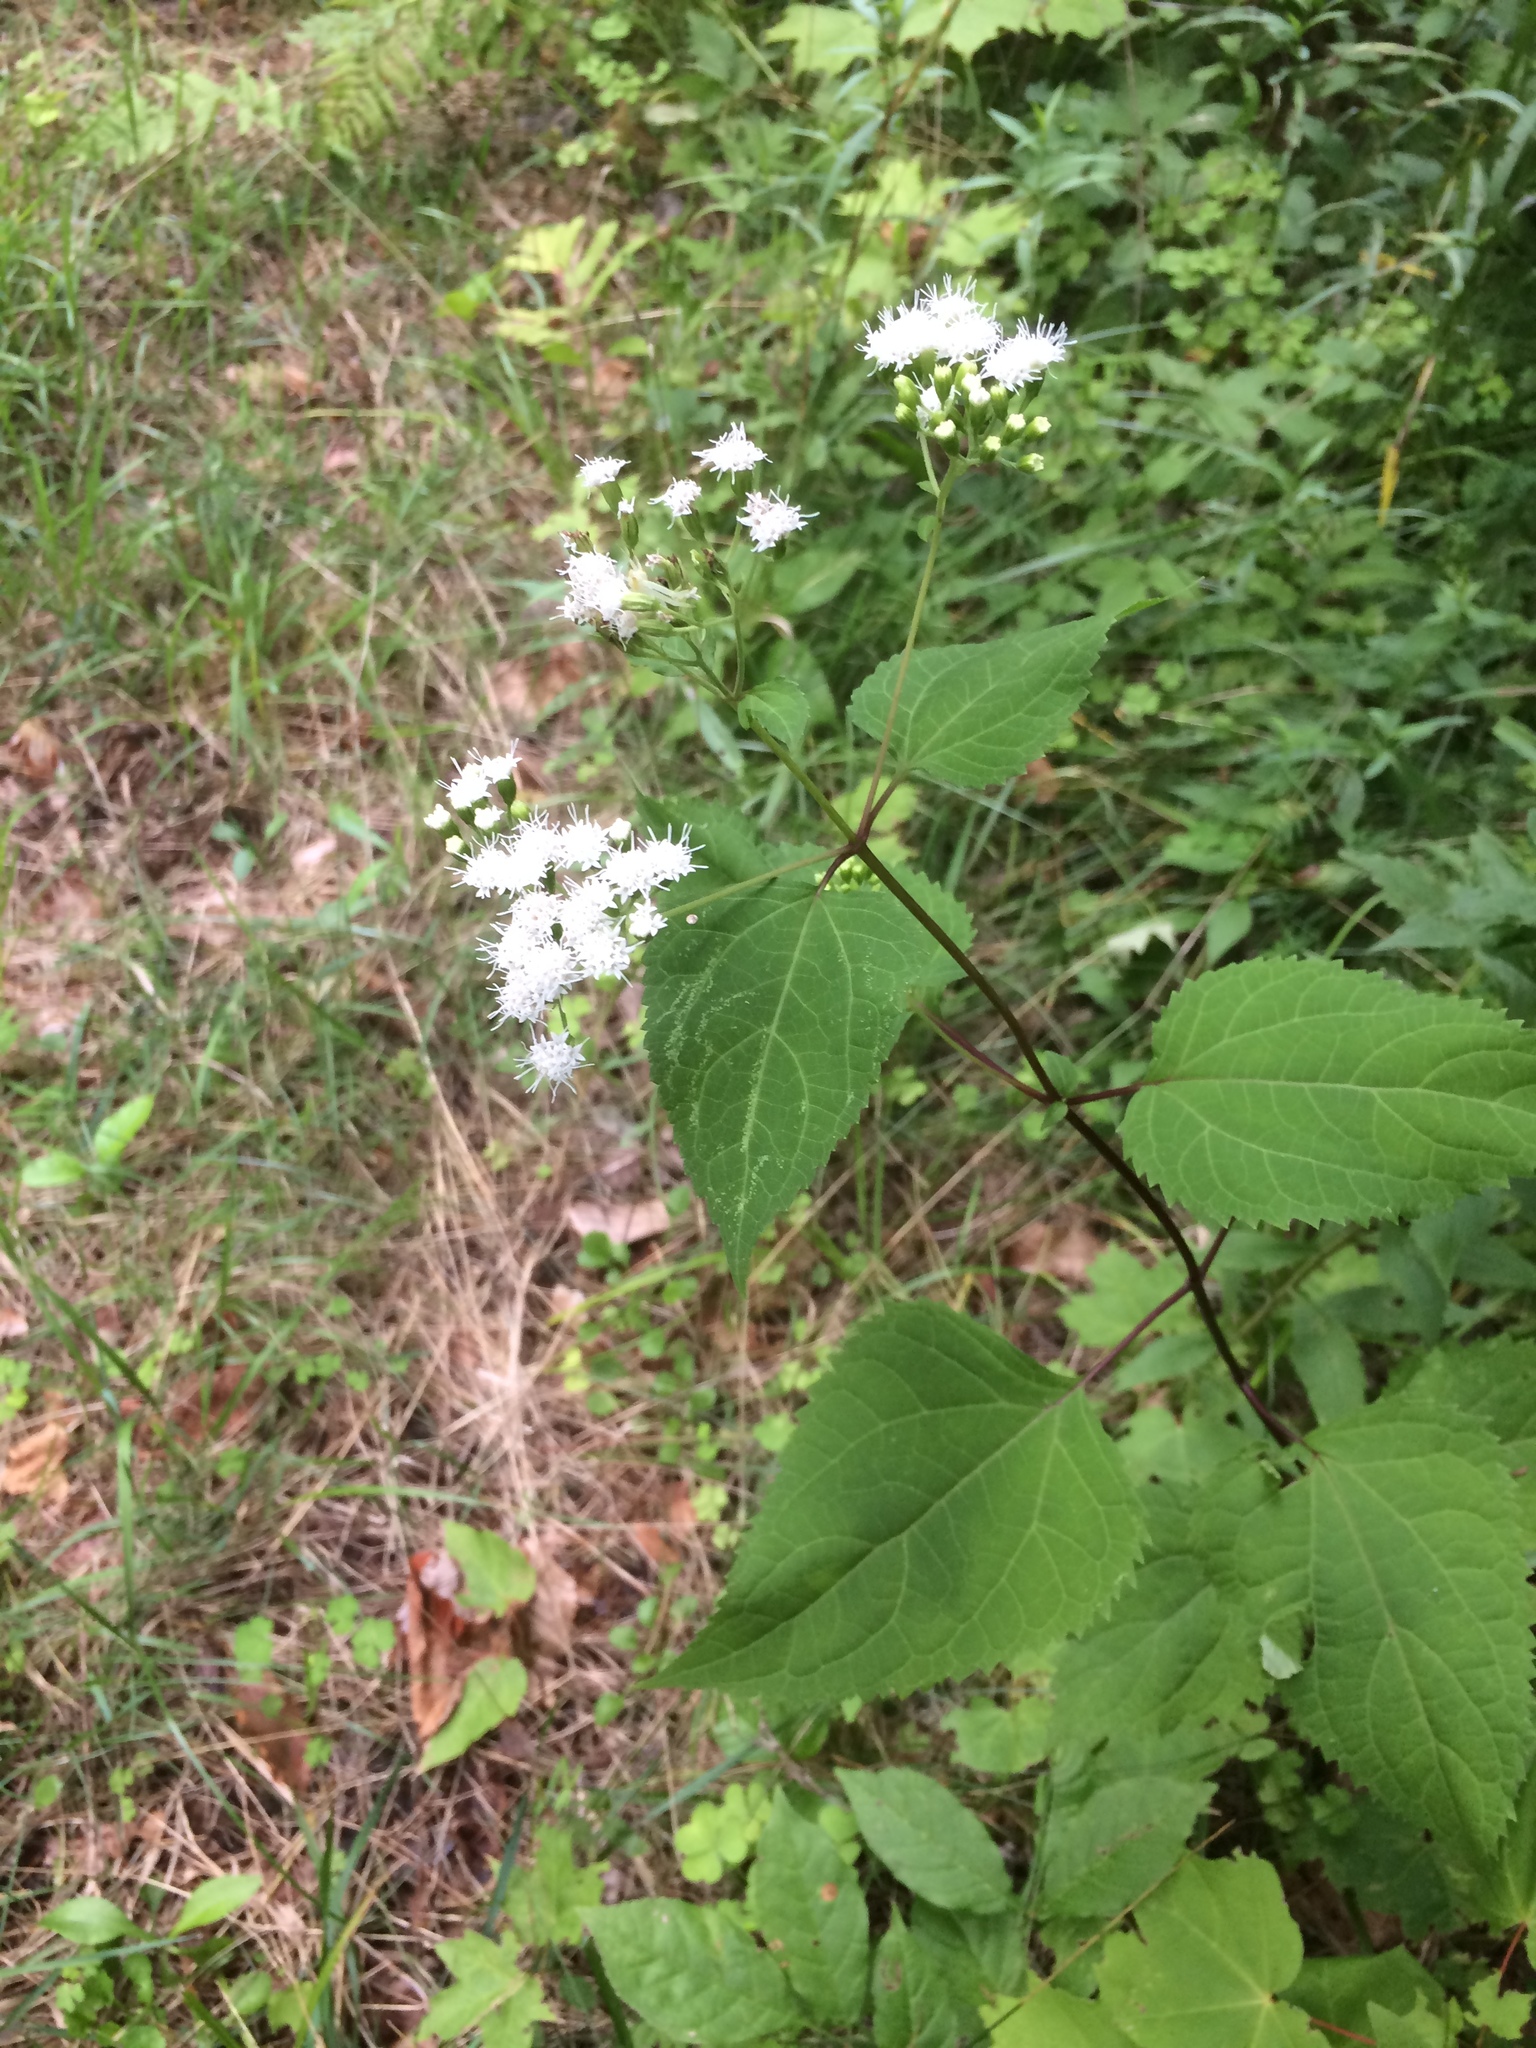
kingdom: Plantae
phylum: Tracheophyta
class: Magnoliopsida
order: Asterales
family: Asteraceae
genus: Ageratina
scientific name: Ageratina altissima
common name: White snakeroot
